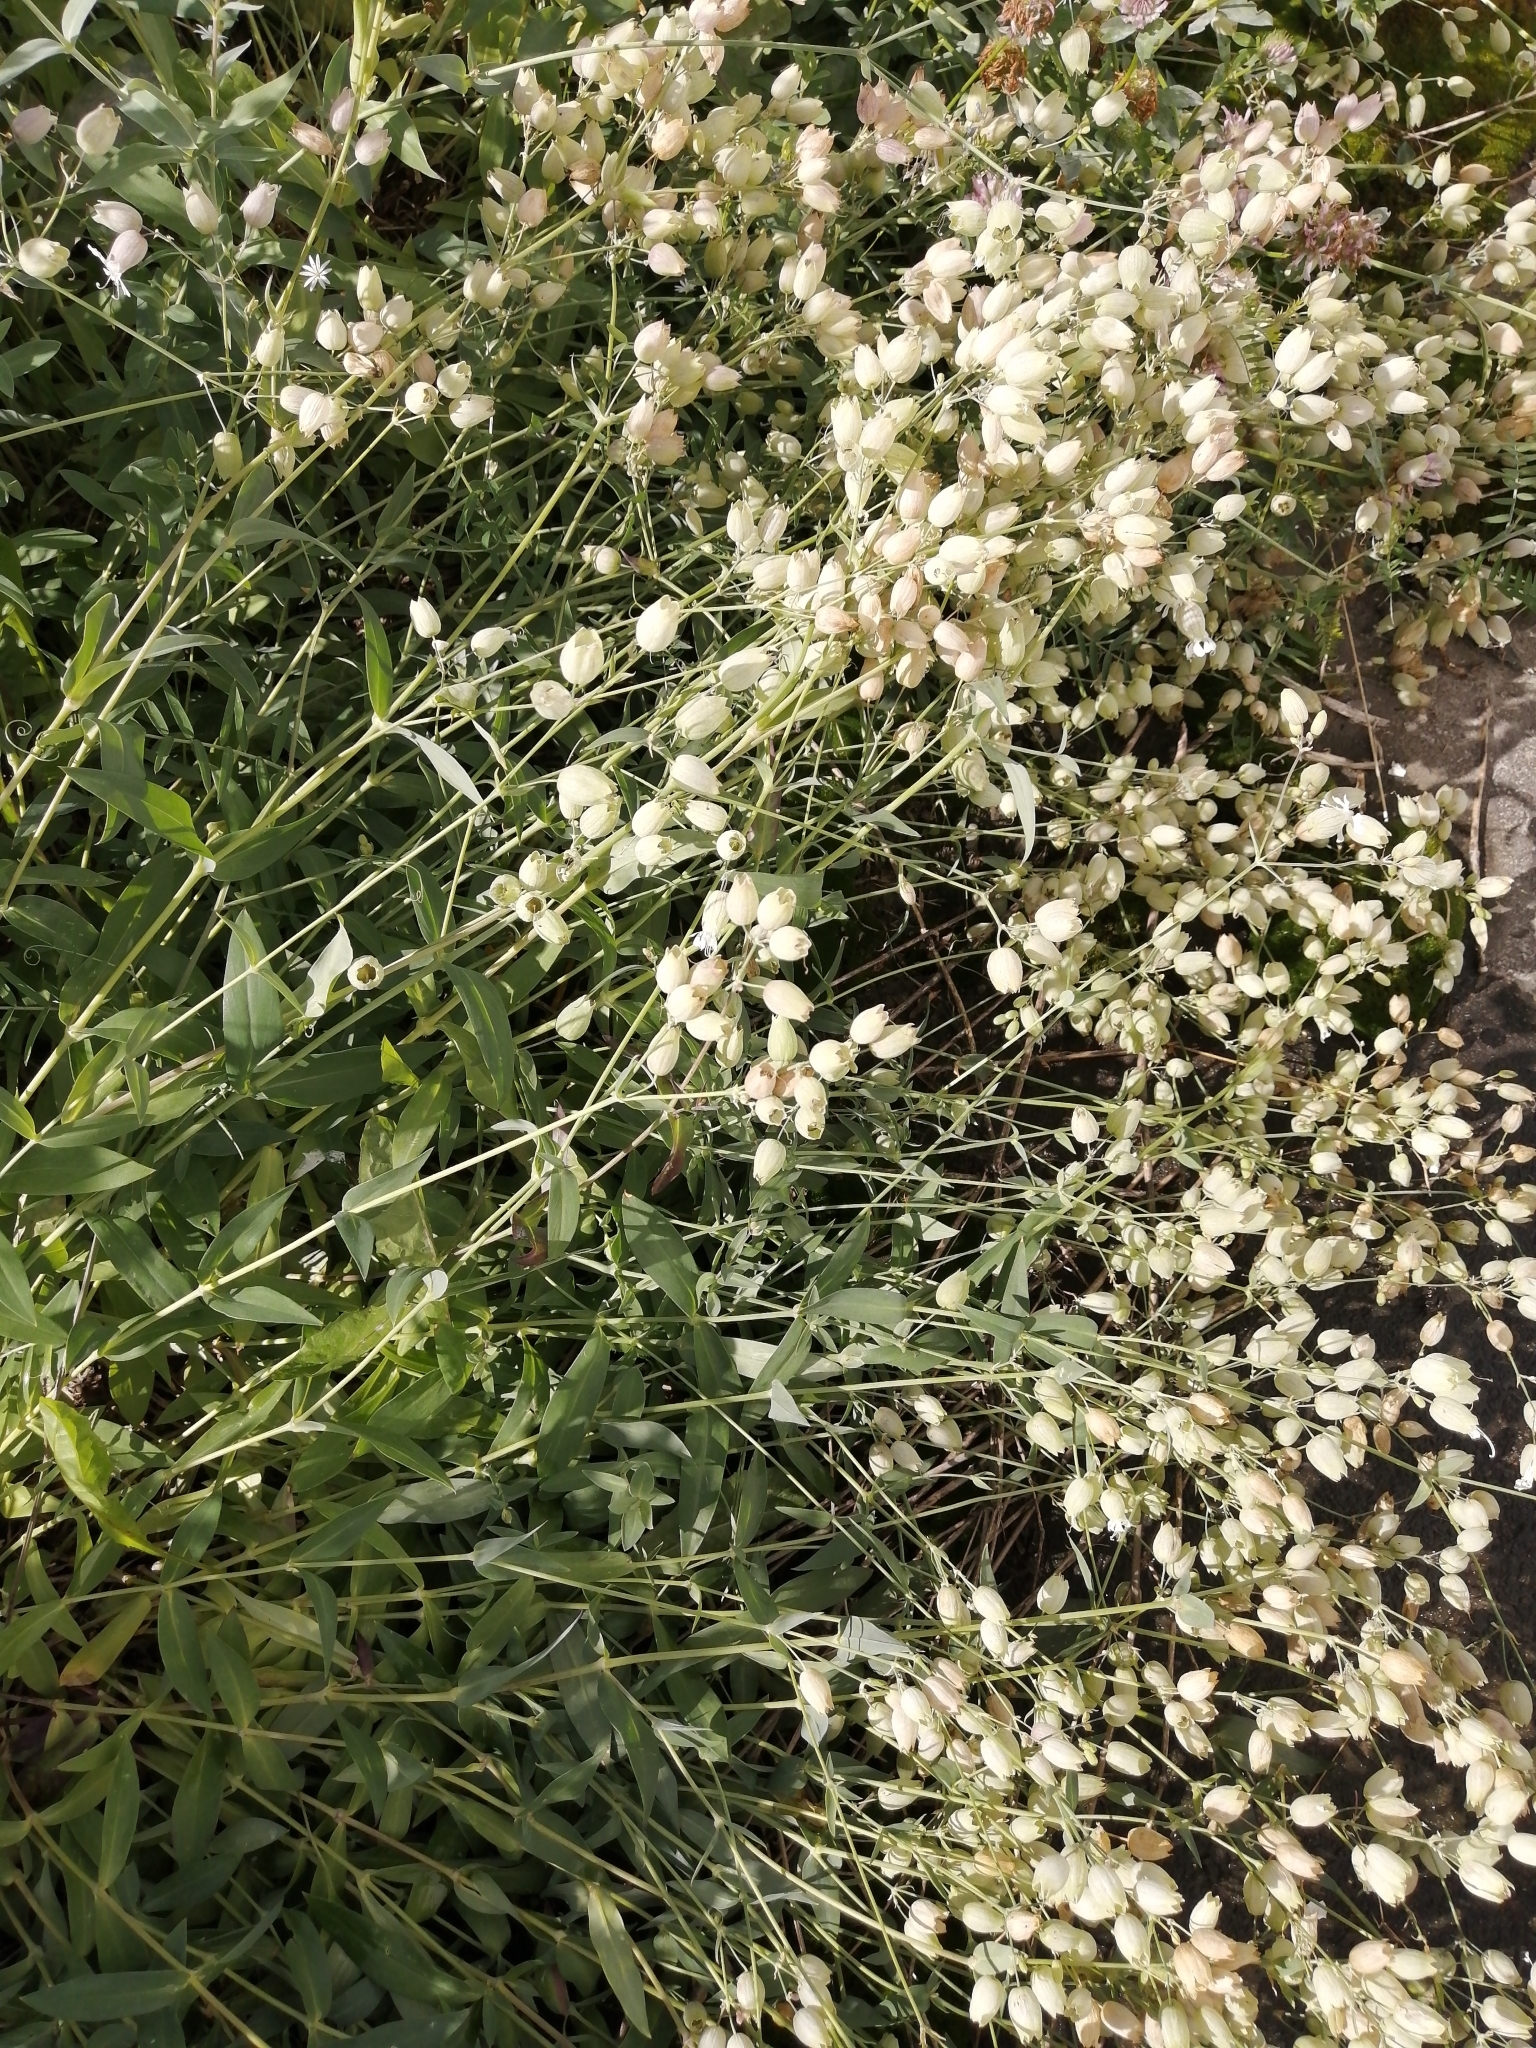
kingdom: Plantae
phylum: Tracheophyta
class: Magnoliopsida
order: Caryophyllales
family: Caryophyllaceae
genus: Silene
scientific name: Silene vulgaris
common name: Bladder campion
